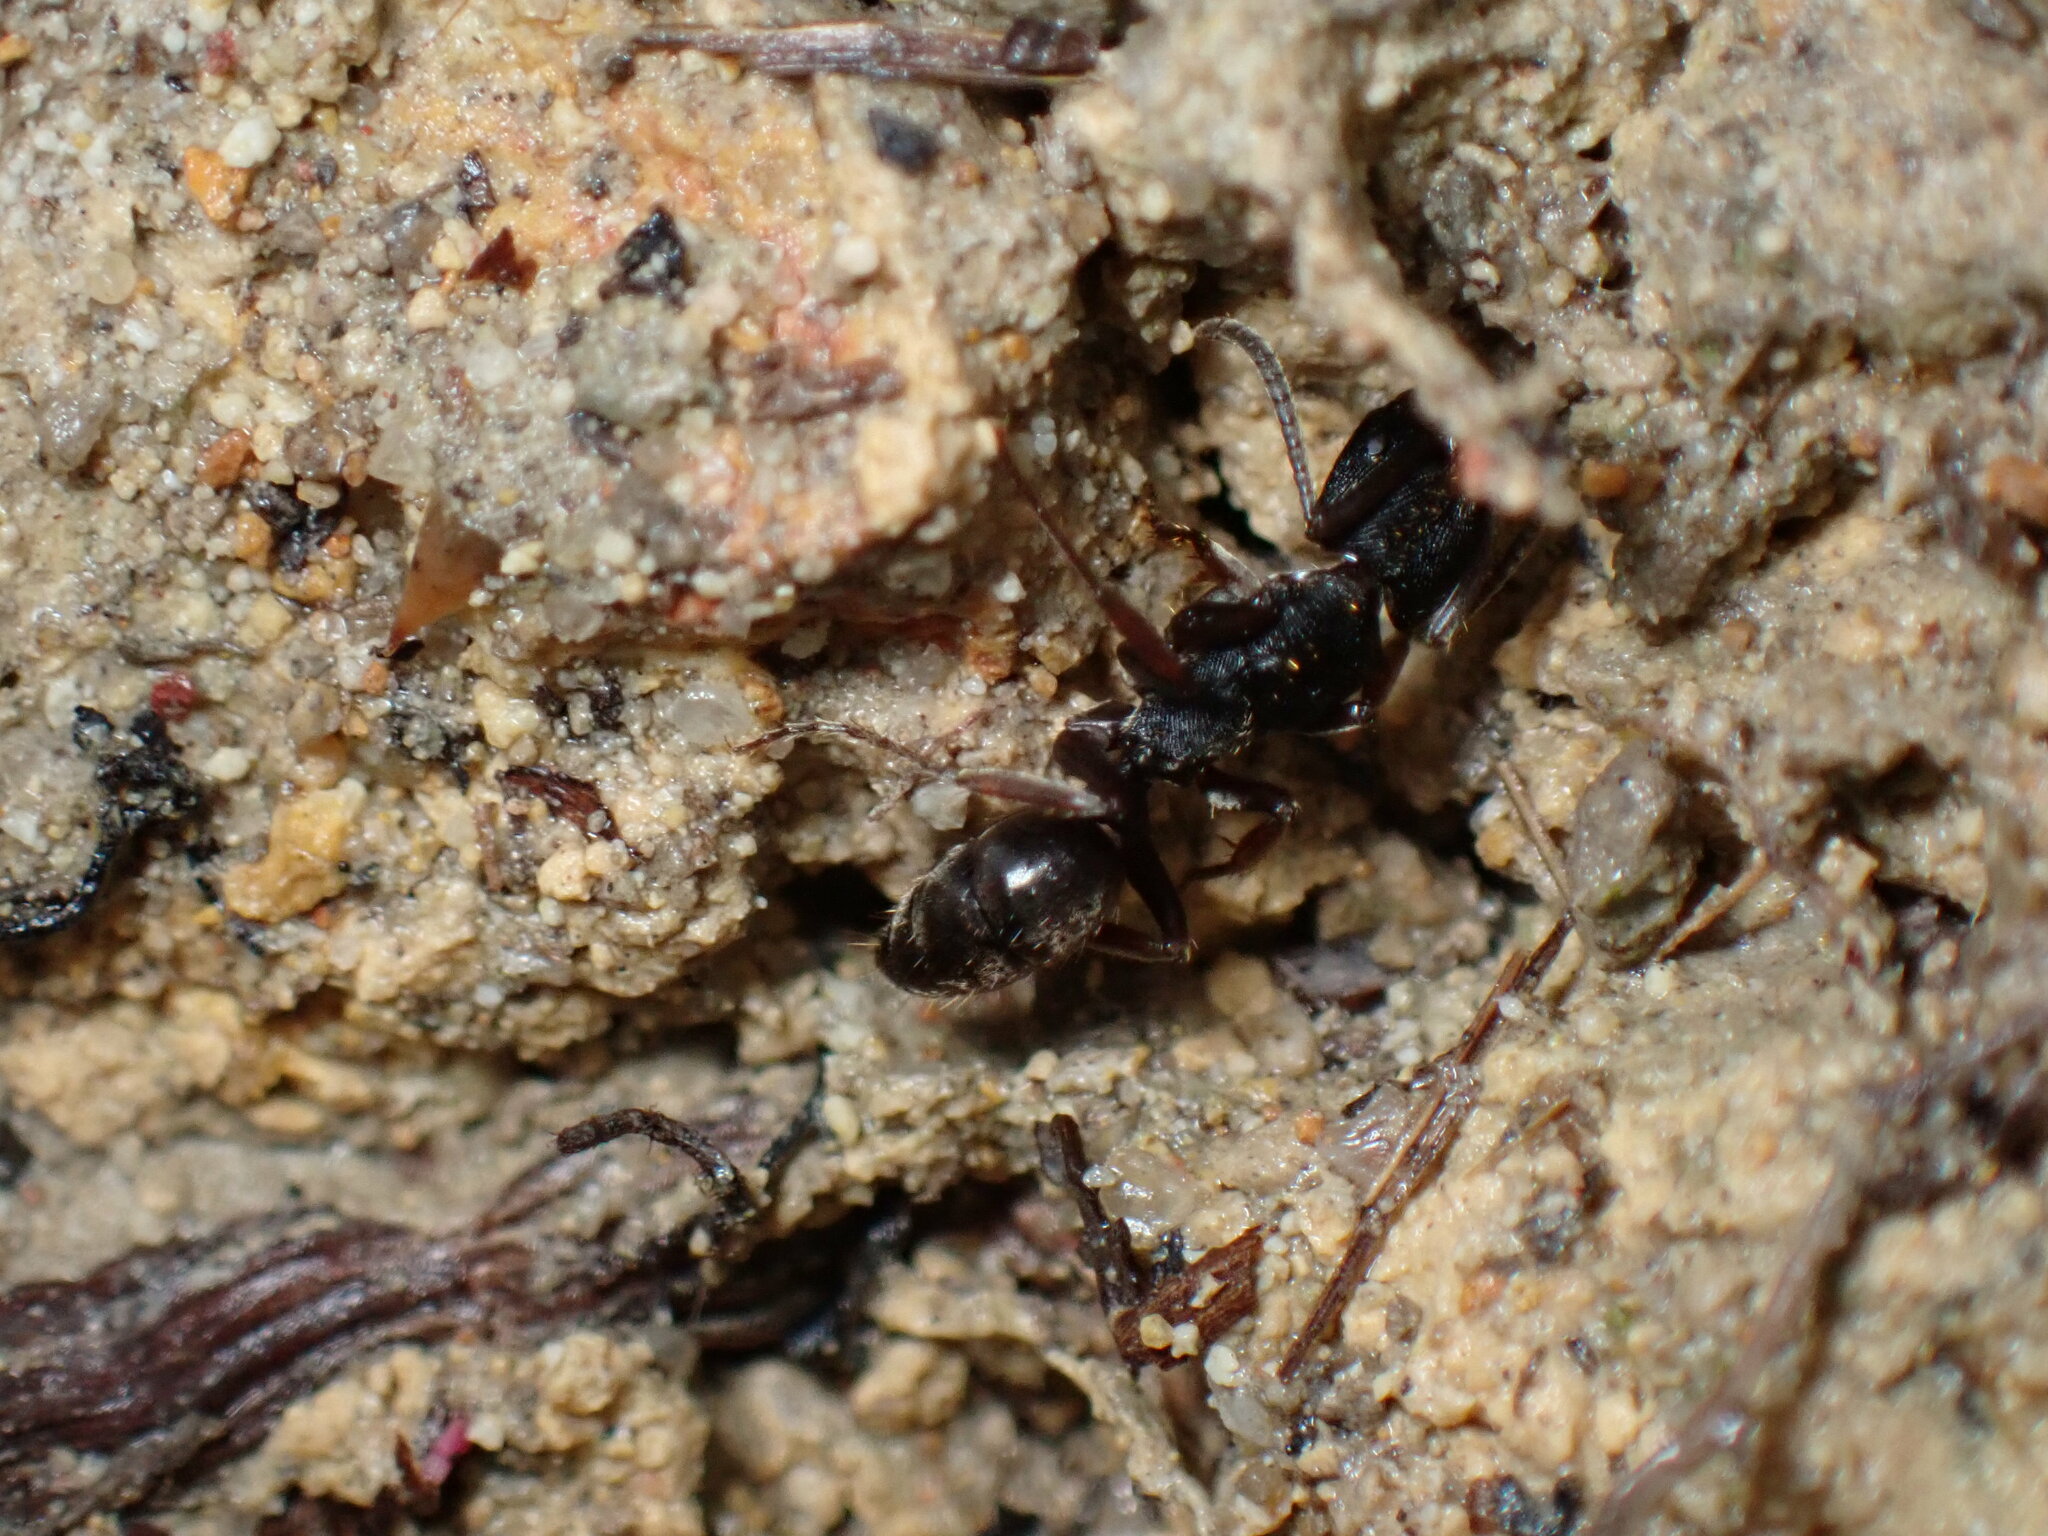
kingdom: Animalia
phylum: Arthropoda
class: Insecta
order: Hymenoptera
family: Formicidae
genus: Odontoponera
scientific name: Odontoponera denticulata
